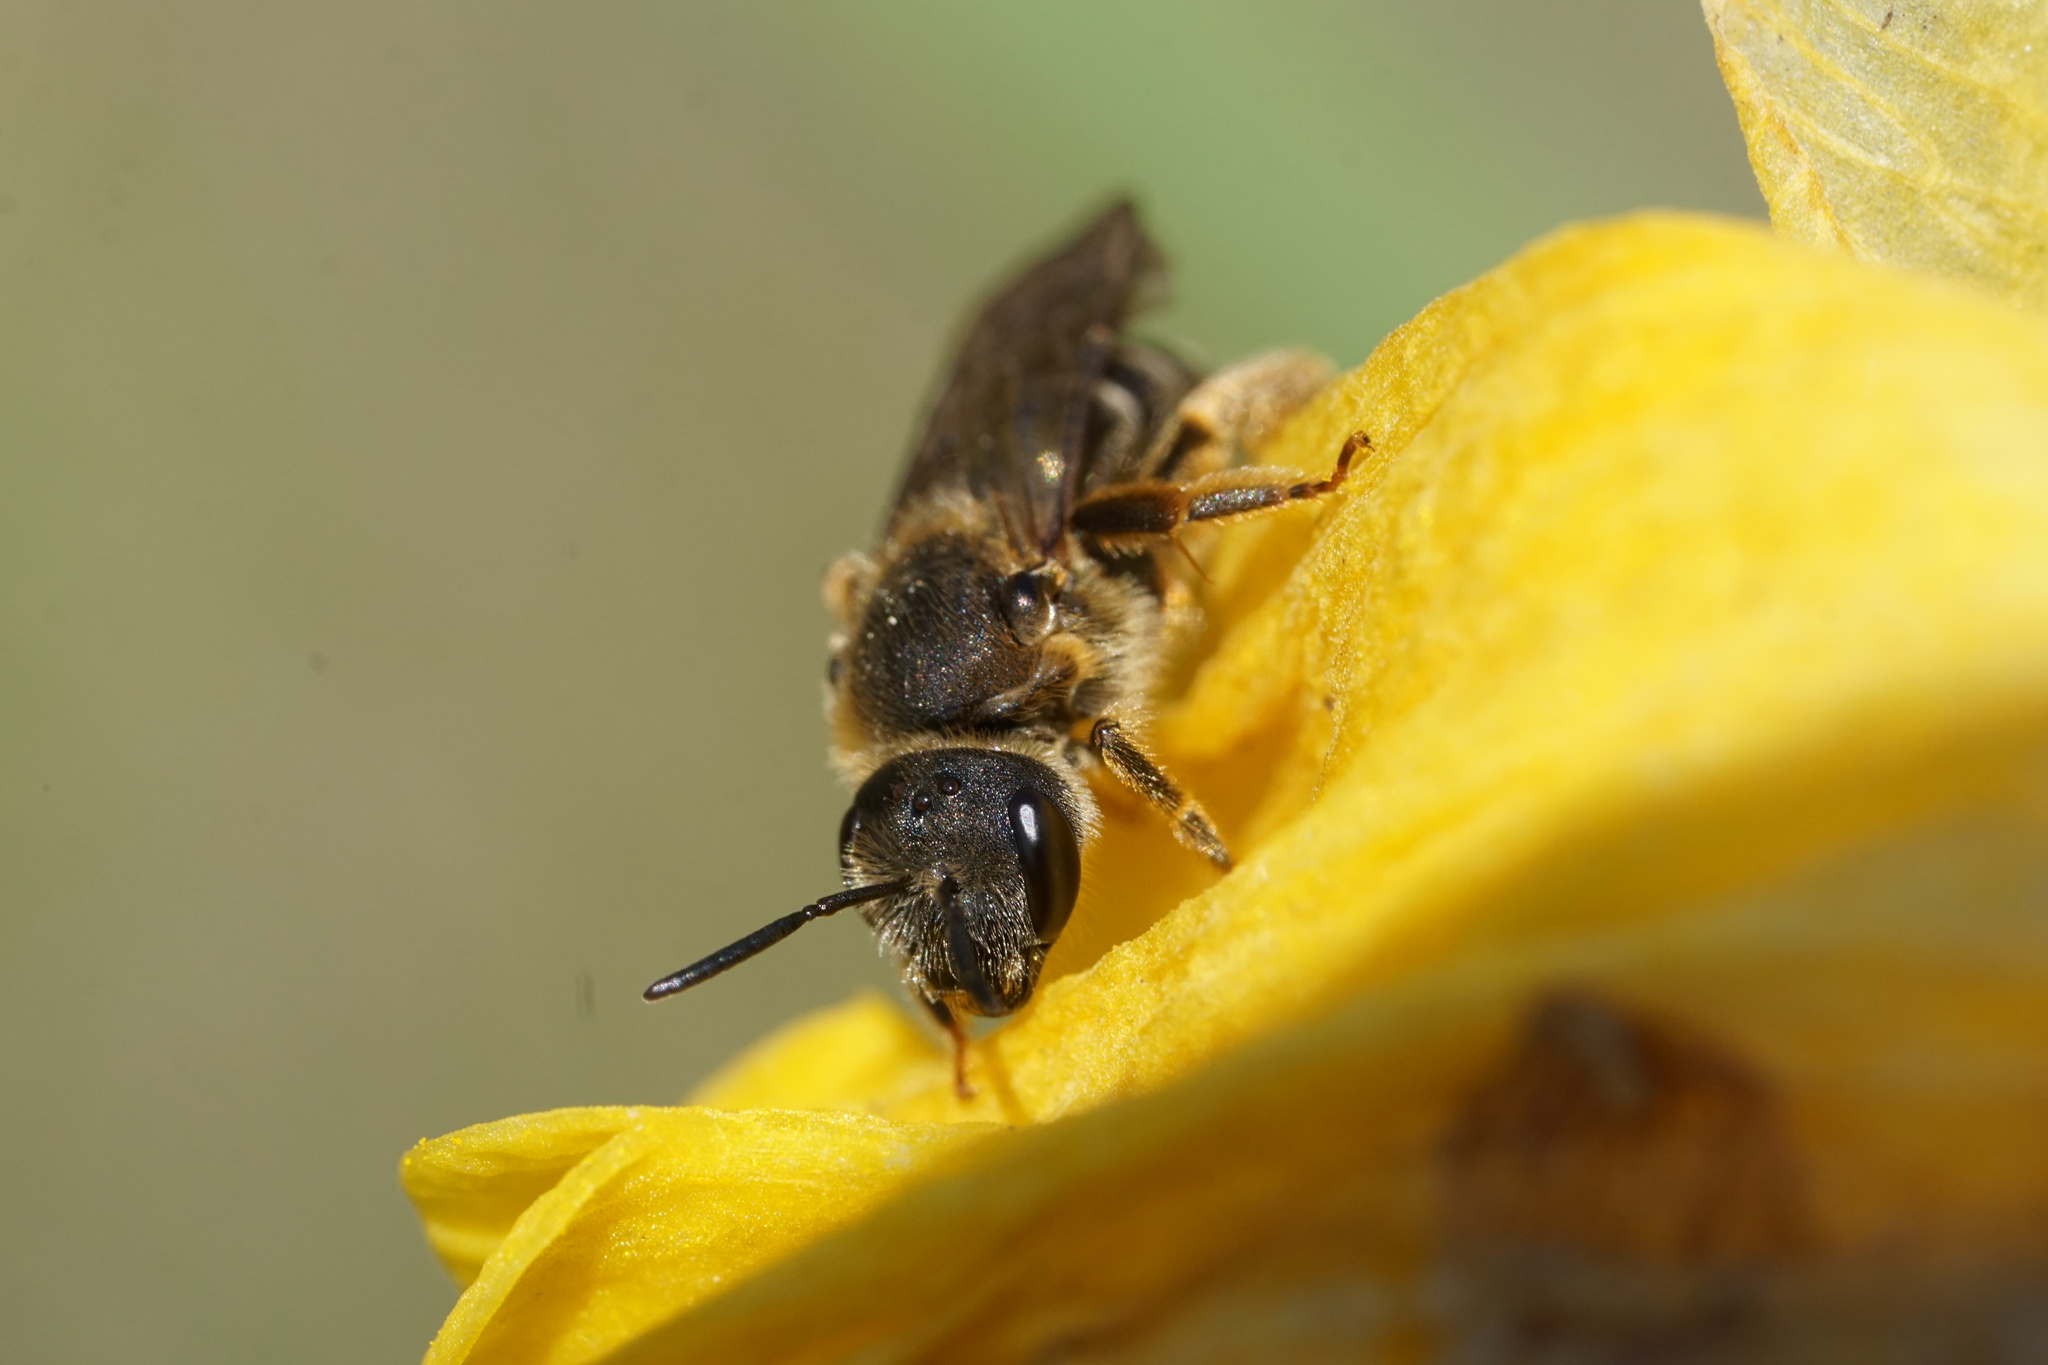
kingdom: Animalia
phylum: Arthropoda
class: Insecta
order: Hymenoptera
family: Halictidae
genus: Halictus
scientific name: Halictus rubicundus
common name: Orange-legged furrow bee
